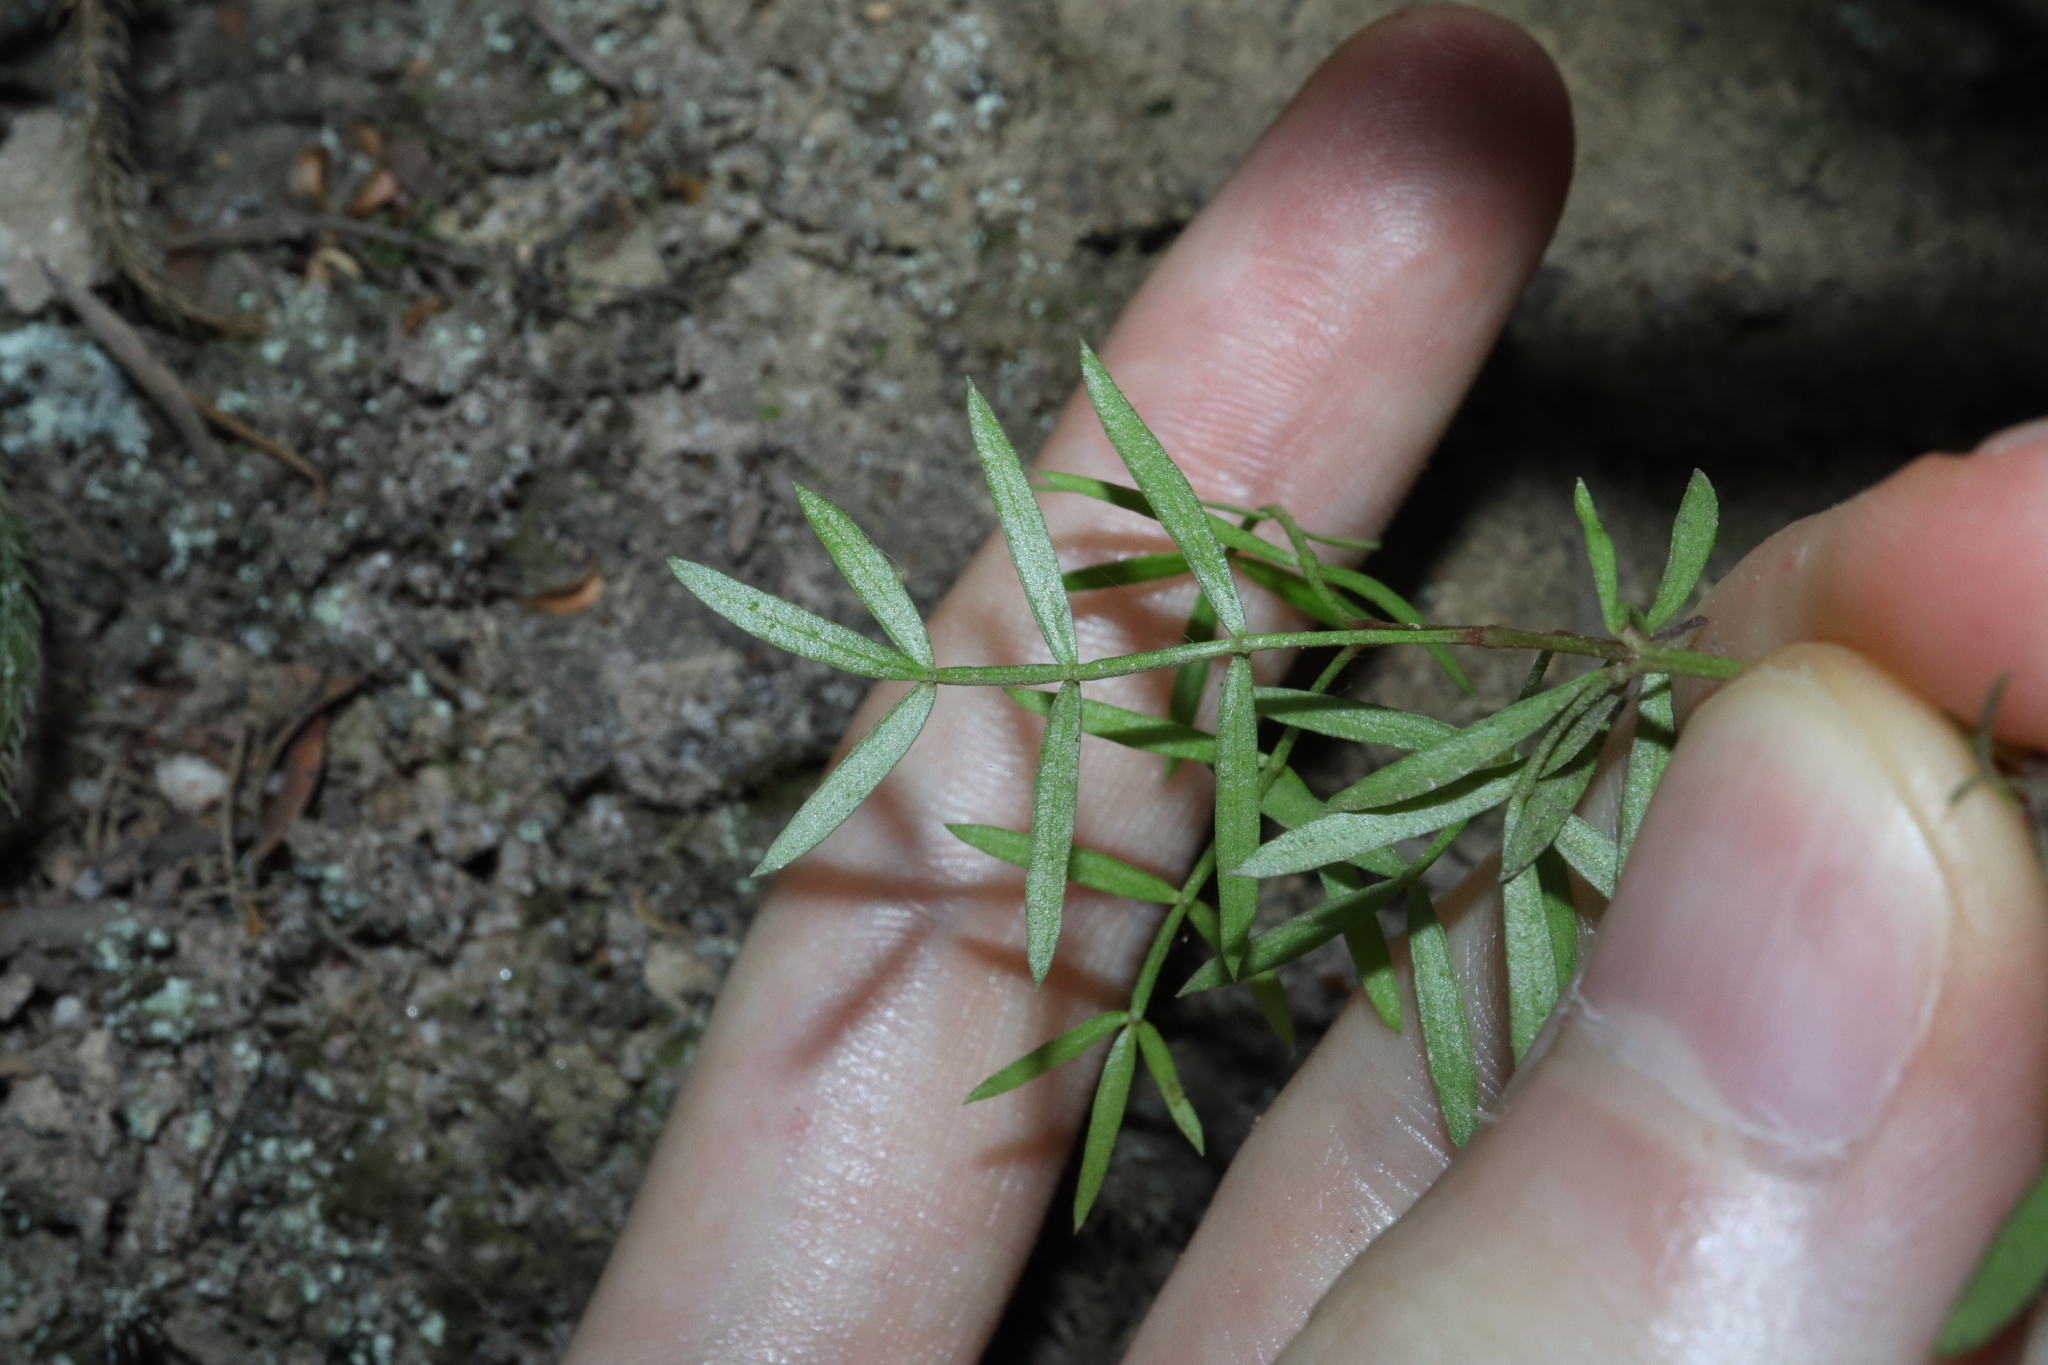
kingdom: Plantae
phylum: Tracheophyta
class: Magnoliopsida
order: Sapindales
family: Rutaceae
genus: Boronia
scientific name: Boronia pinnata
